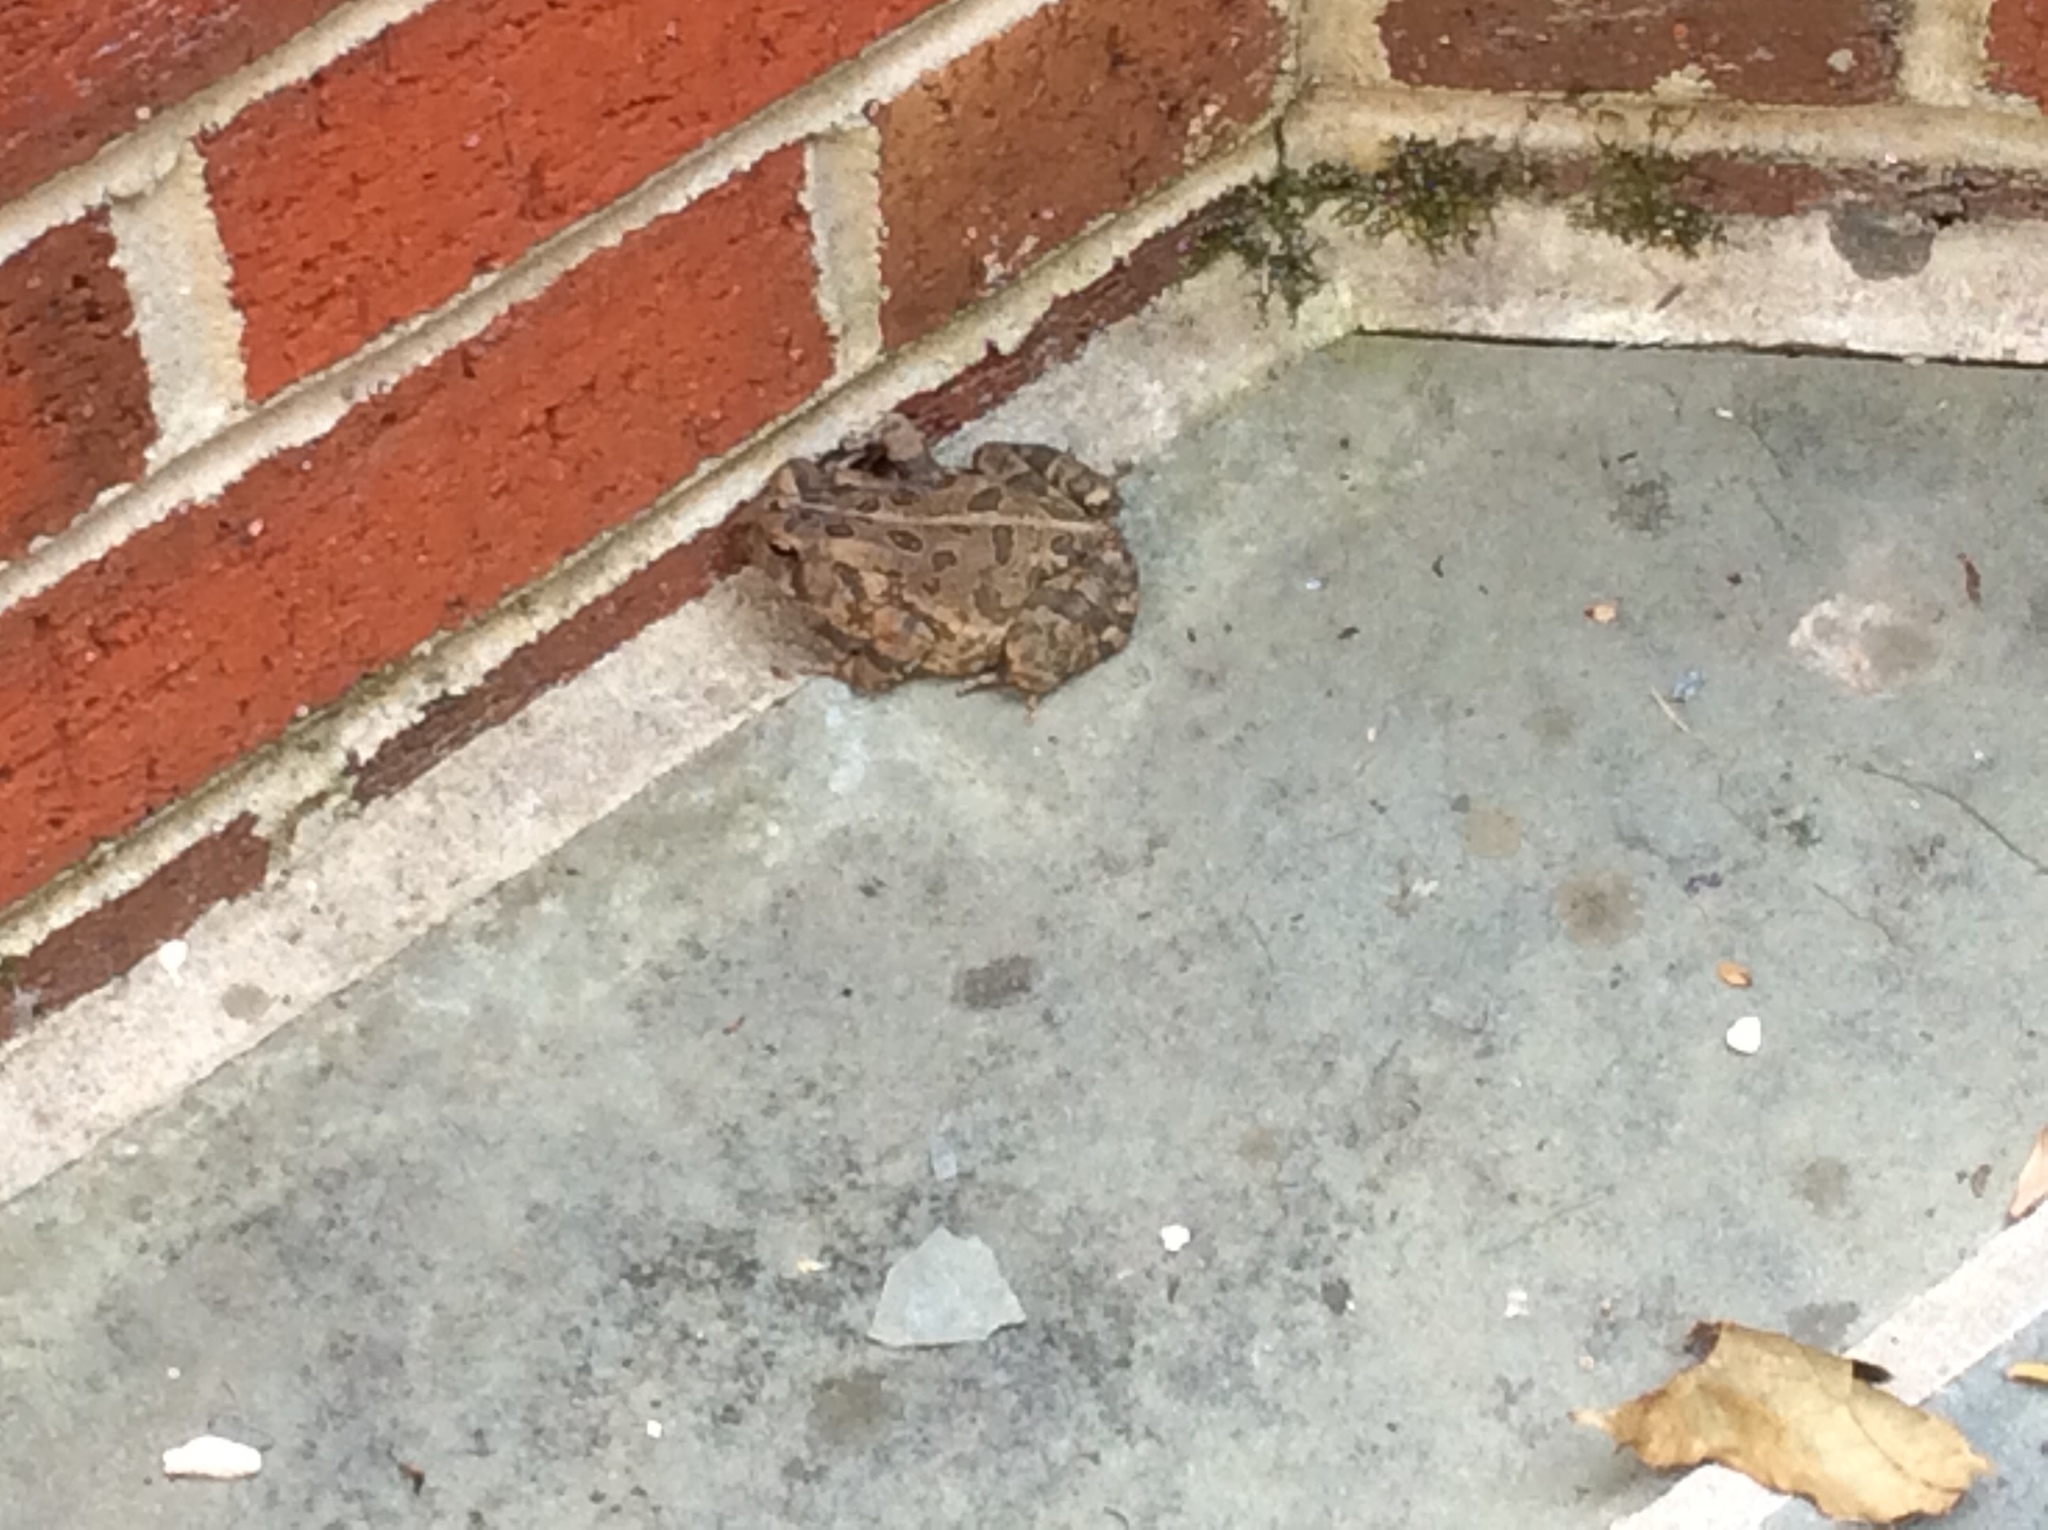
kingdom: Animalia
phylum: Chordata
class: Amphibia
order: Anura
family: Bufonidae
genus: Anaxyrus
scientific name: Anaxyrus fowleri
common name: Fowler's toad
